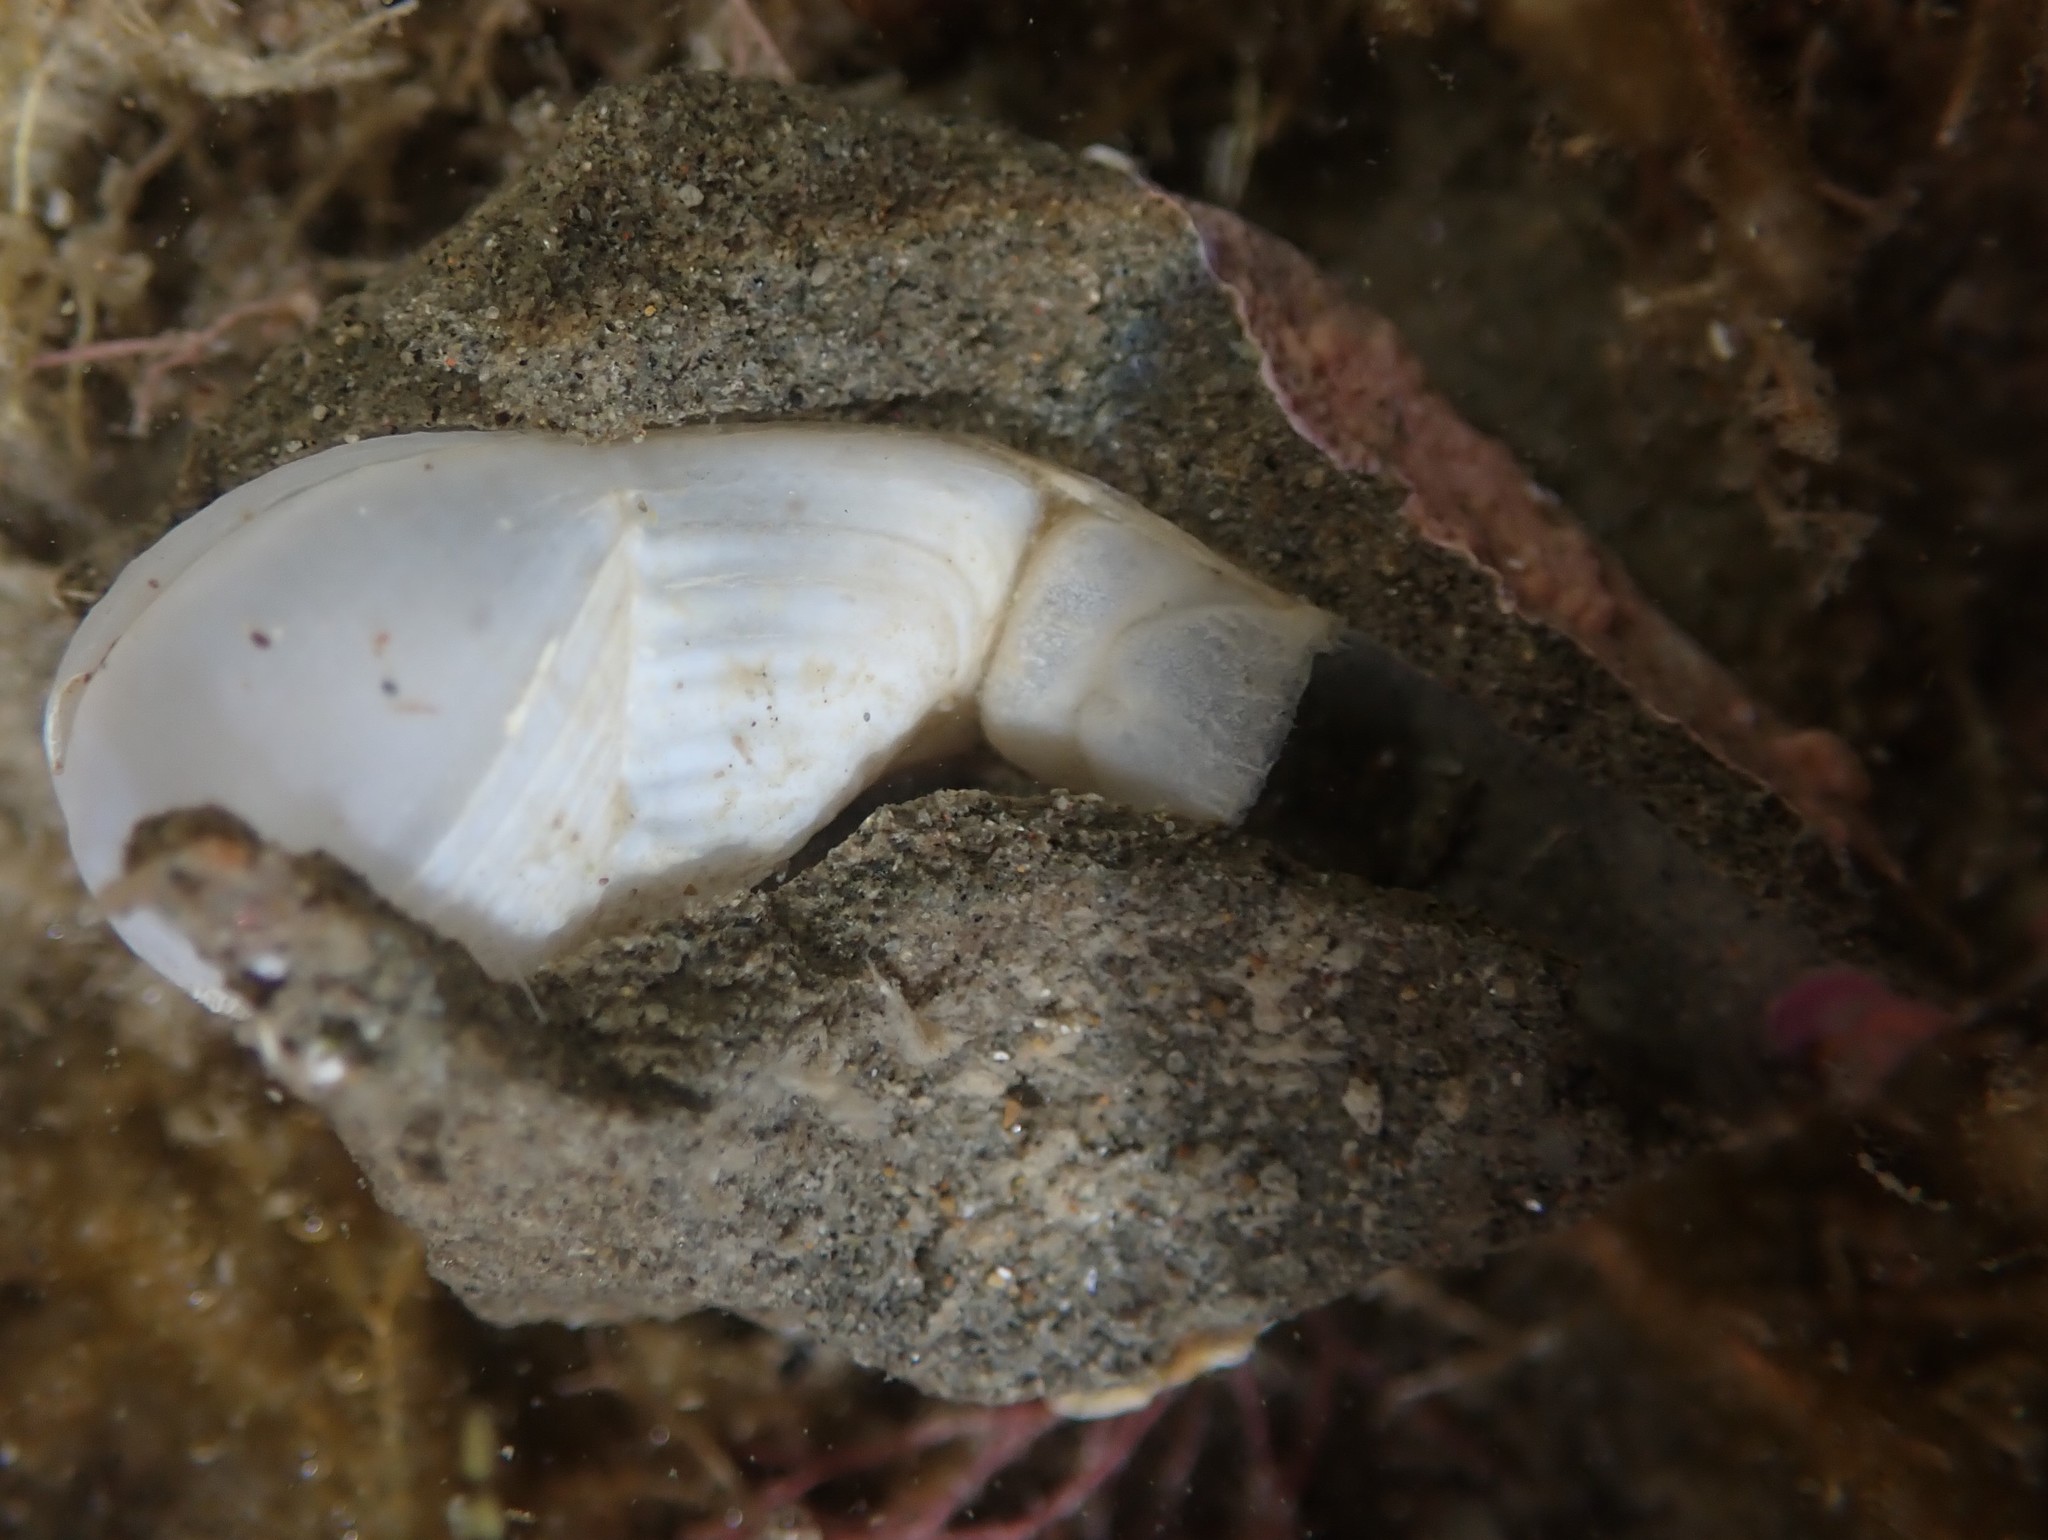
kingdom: Animalia
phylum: Mollusca
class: Bivalvia
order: Myida
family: Pholadidae
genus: Pholadidea
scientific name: Pholadidea tridens
